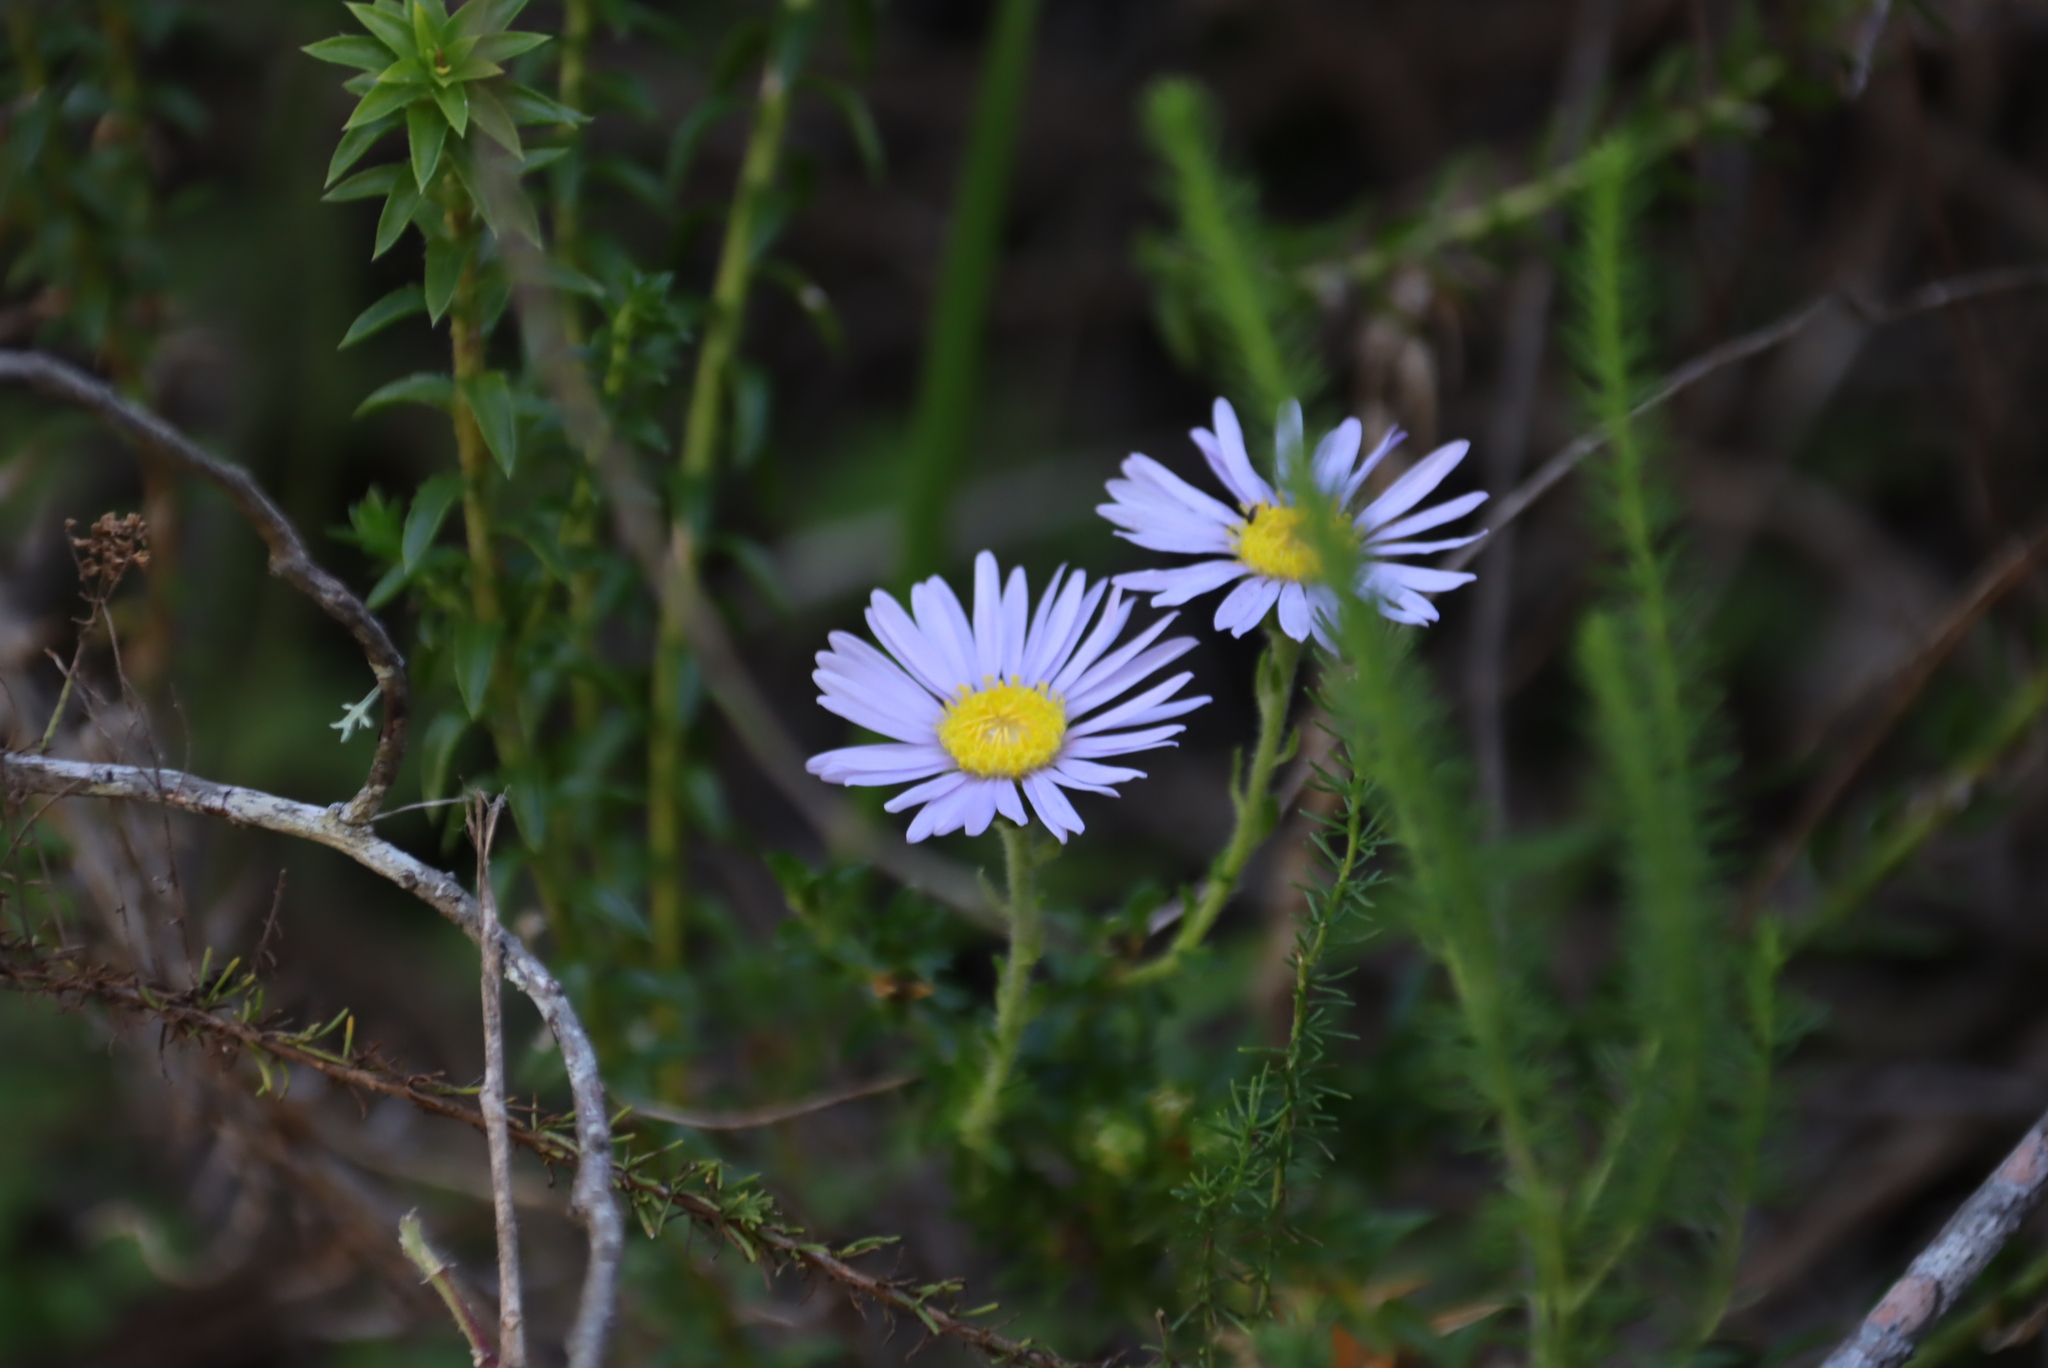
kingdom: Plantae
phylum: Tracheophyta
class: Magnoliopsida
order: Asterales
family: Asteraceae
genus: Felicia
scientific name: Felicia echinata
